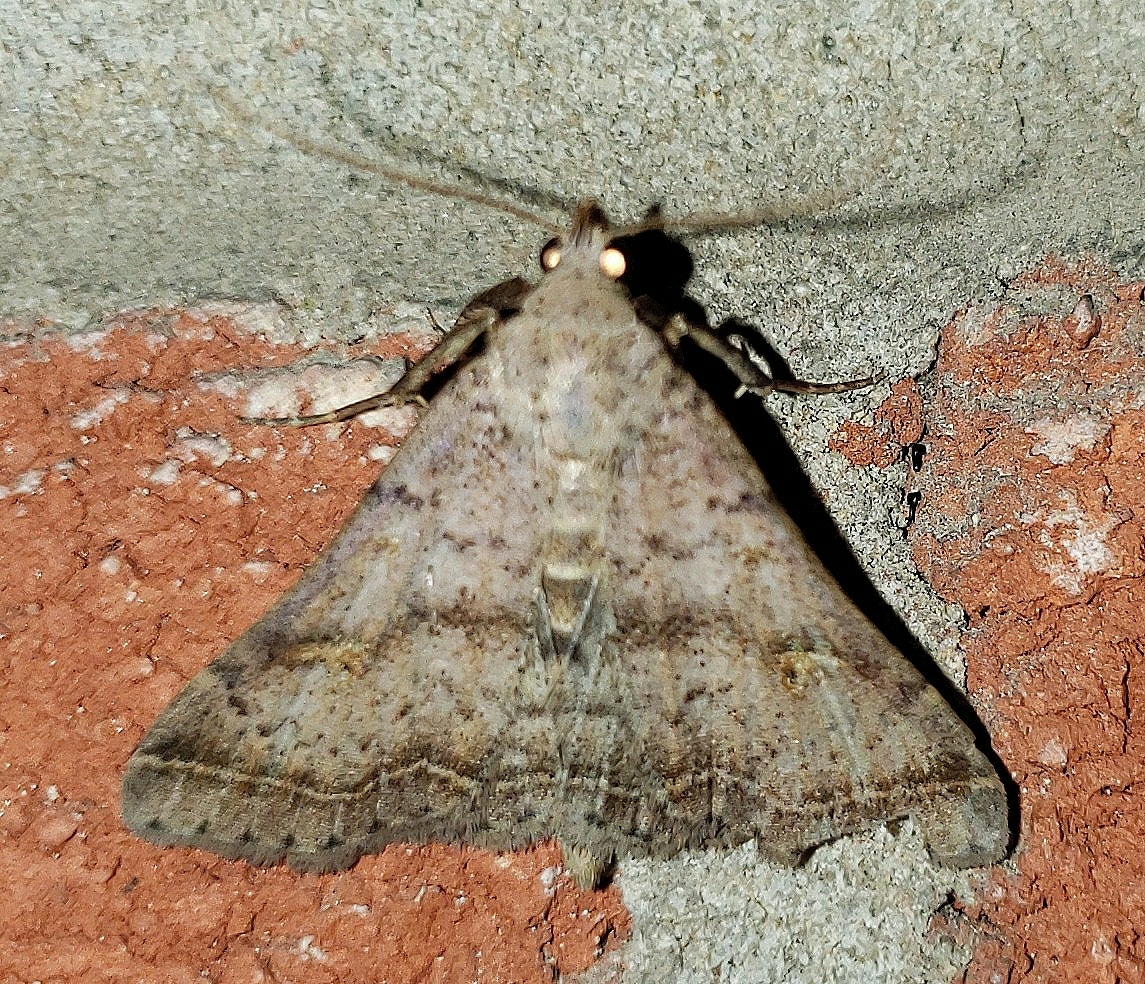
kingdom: Animalia
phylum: Arthropoda
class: Insecta
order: Lepidoptera
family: Erebidae
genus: Bleptina
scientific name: Bleptina caradrinalis
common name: Bent-winged owlet
